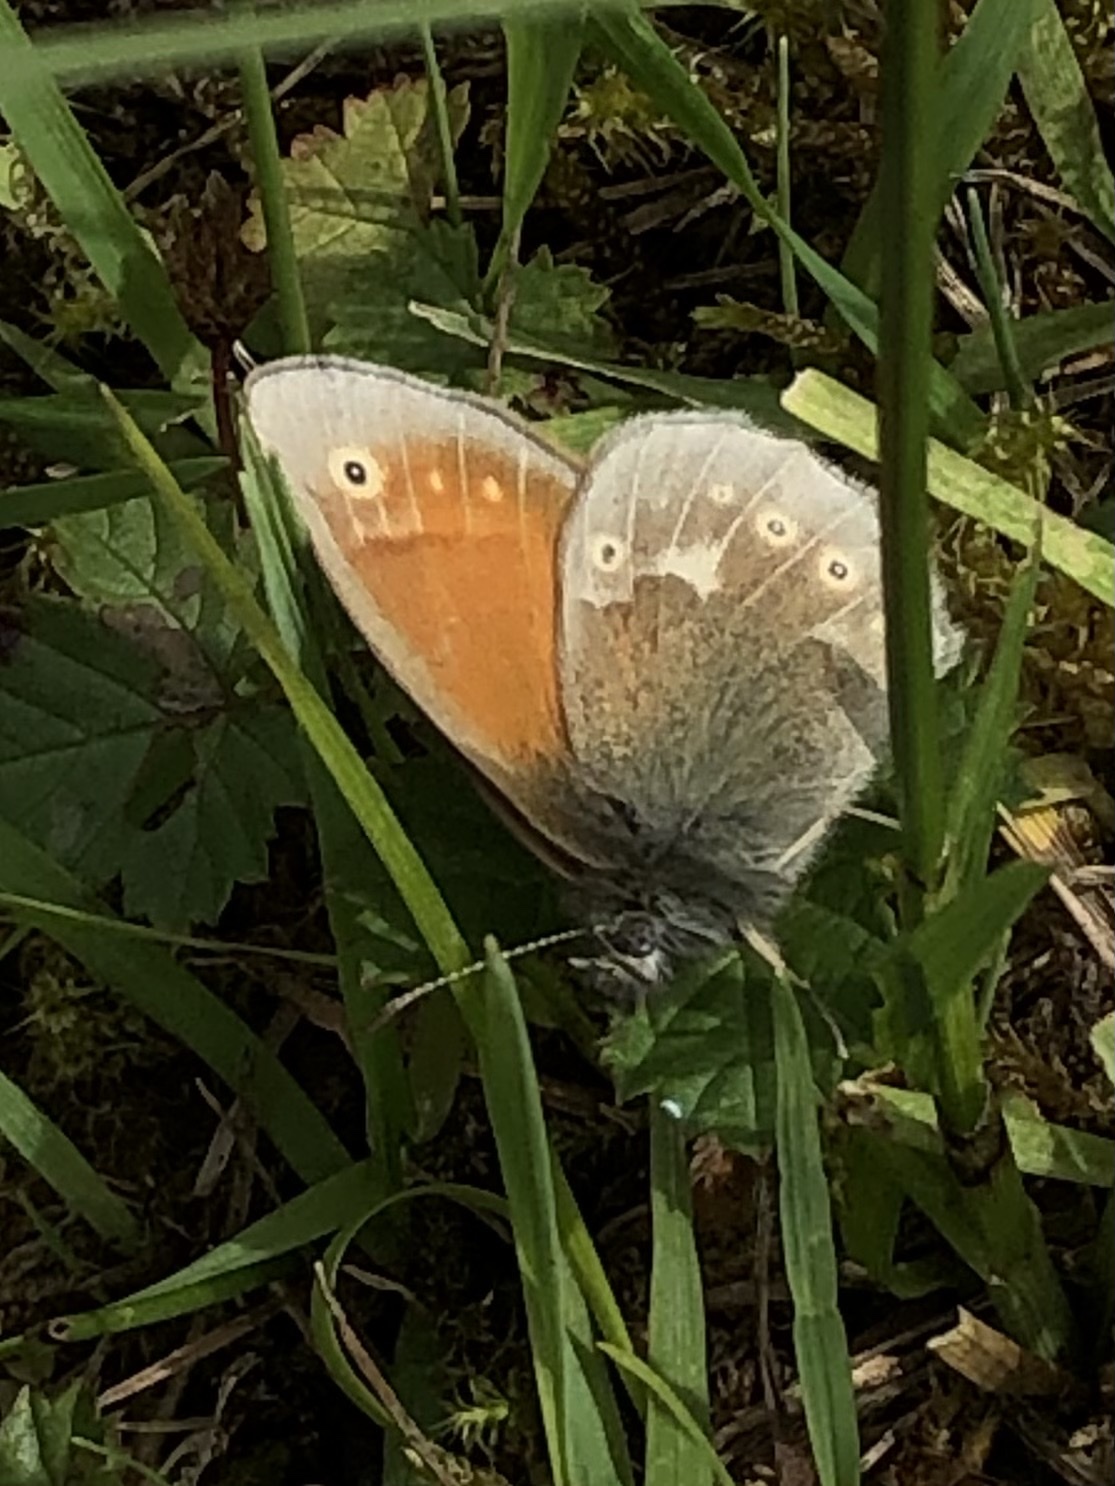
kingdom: Animalia
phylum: Arthropoda
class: Insecta
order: Lepidoptera
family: Nymphalidae
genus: Coenonympha
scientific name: Coenonympha tullia
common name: Large heath
